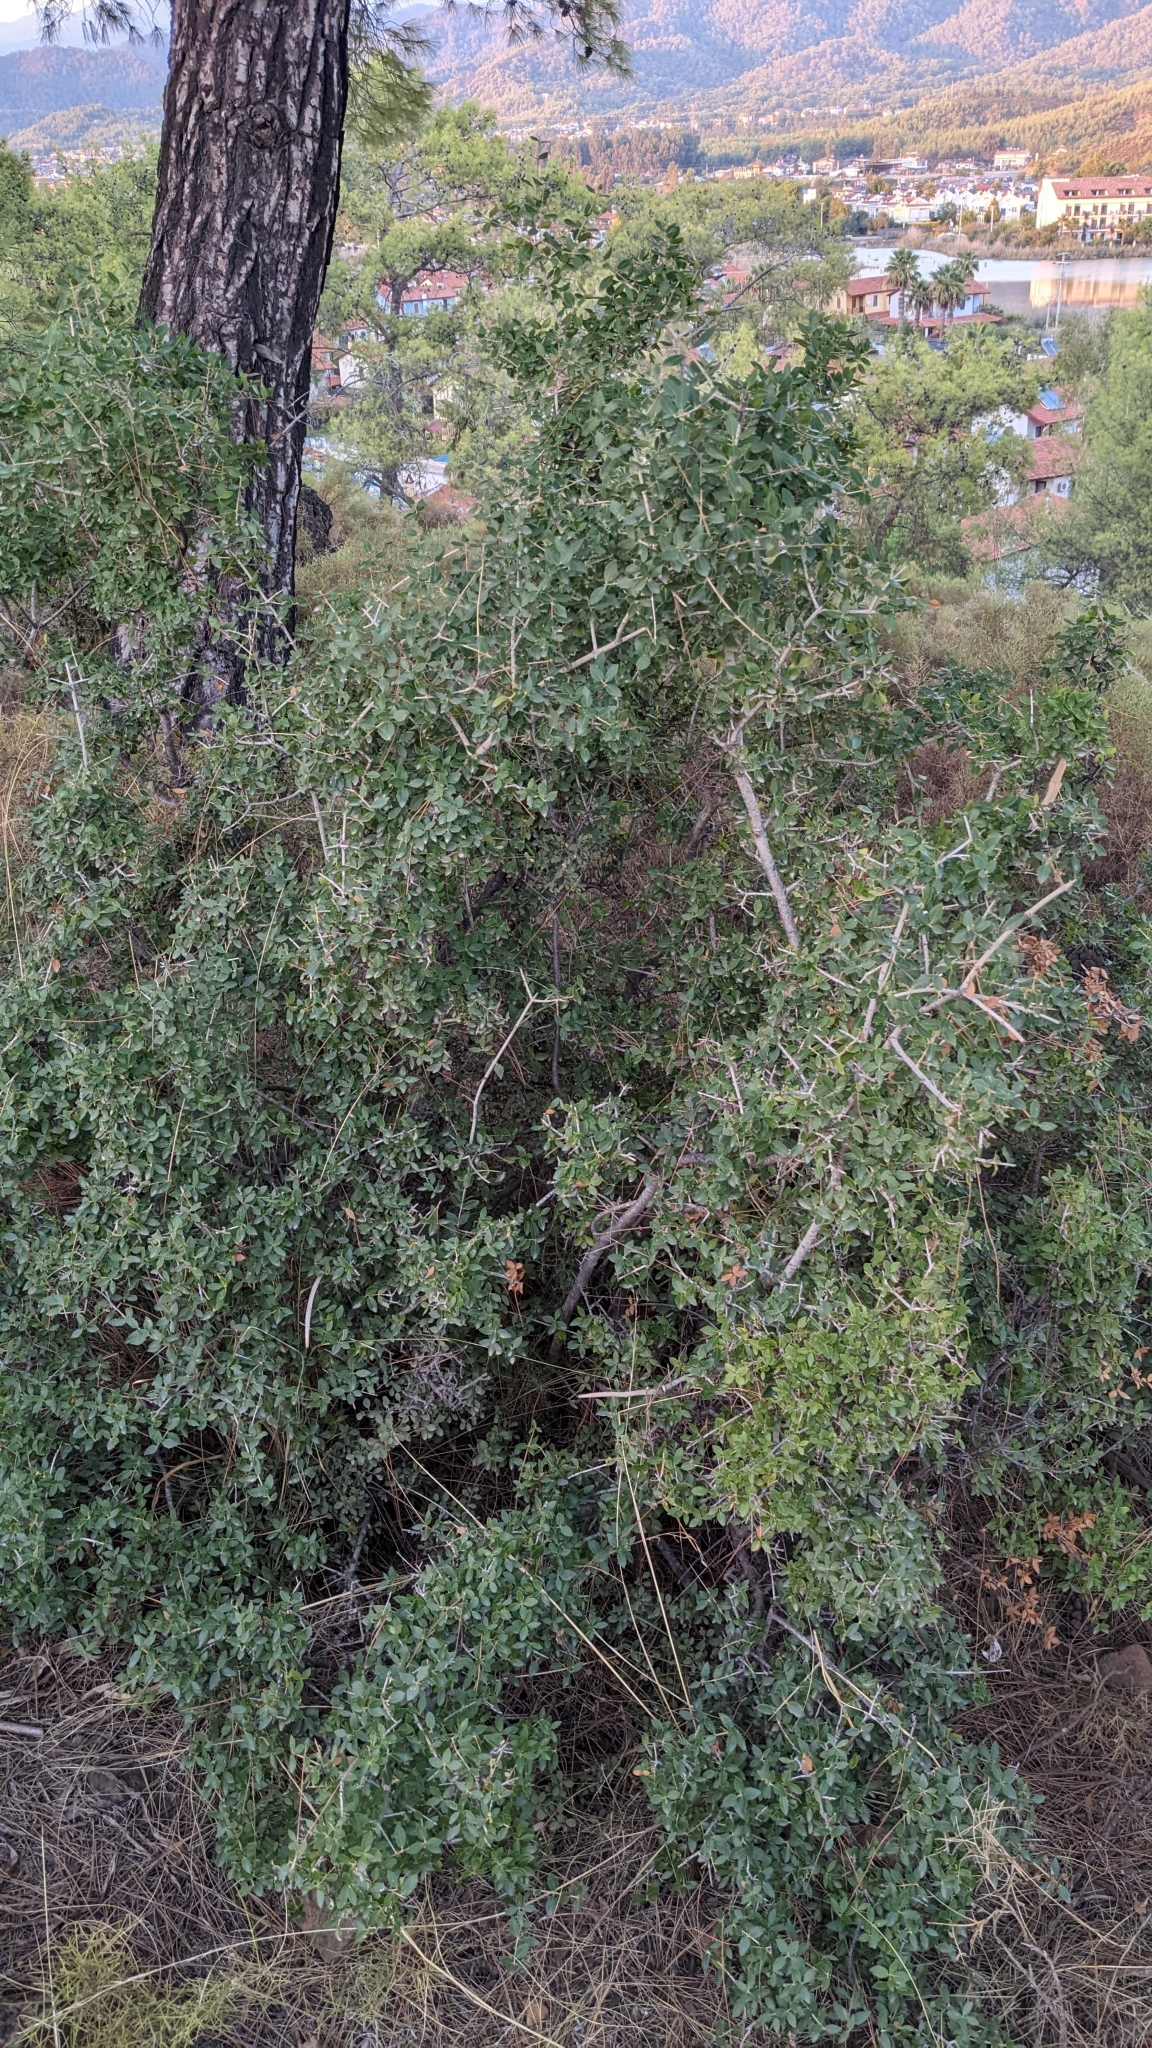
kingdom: Plantae
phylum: Tracheophyta
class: Magnoliopsida
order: Lamiales
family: Oleaceae
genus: Phillyrea
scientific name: Phillyrea latifolia
